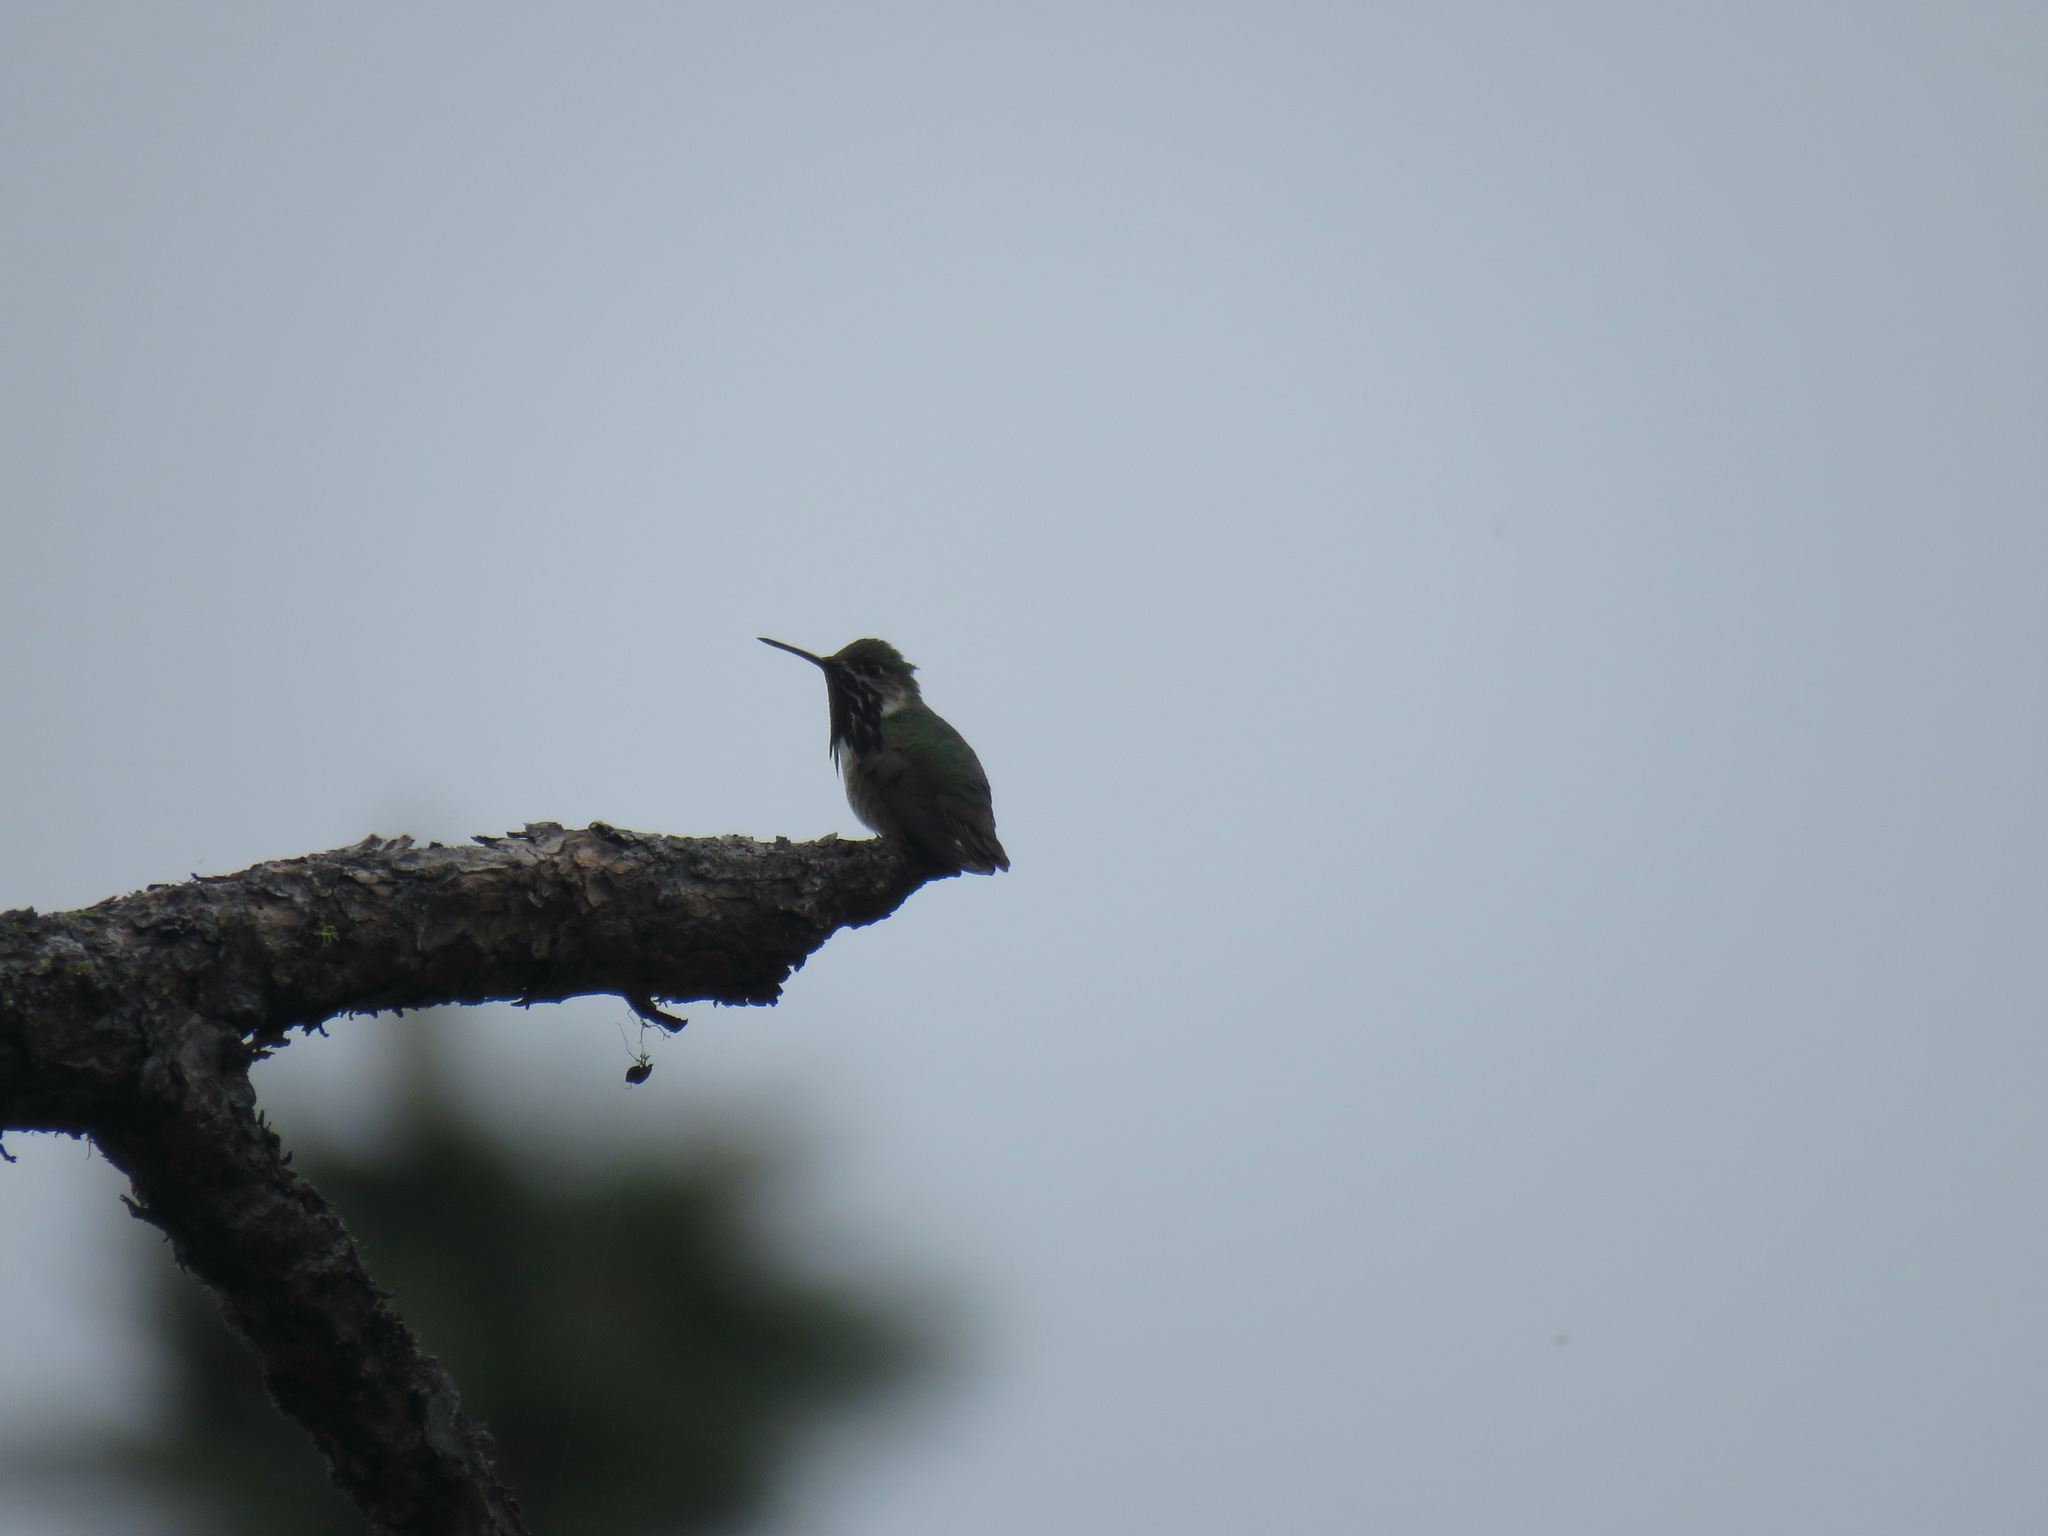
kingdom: Animalia
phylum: Chordata
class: Aves
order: Apodiformes
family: Trochilidae
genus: Selasphorus
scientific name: Selasphorus calliope
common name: Calliope hummingbird
